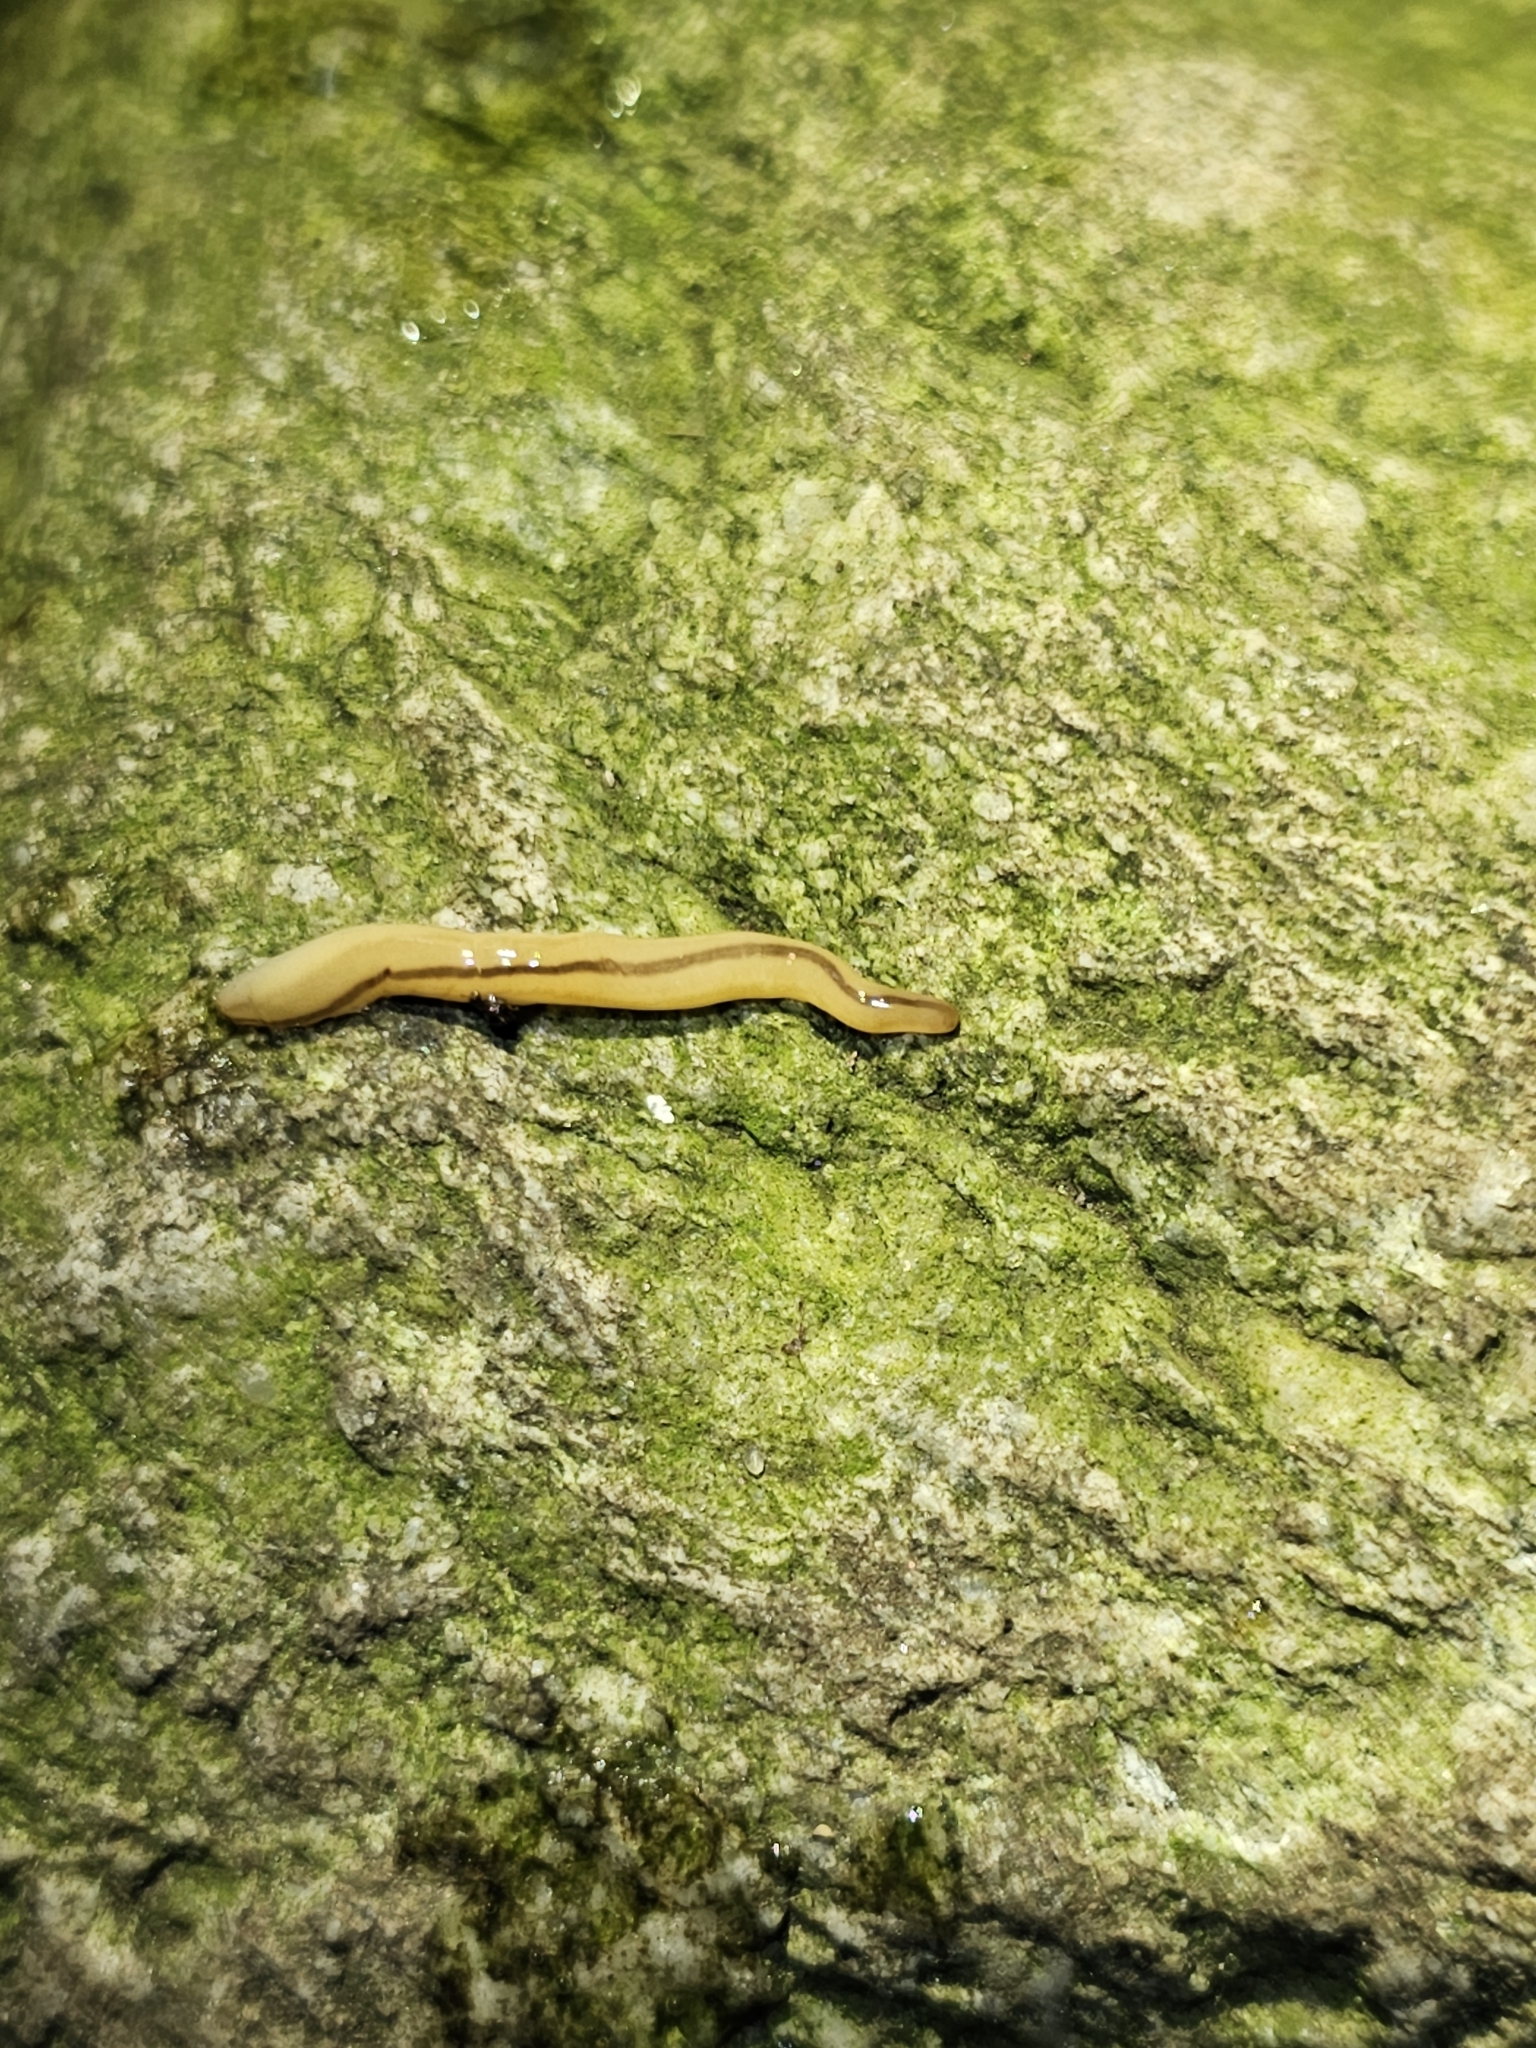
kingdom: Animalia
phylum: Nemertea
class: Hoplonemertea
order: Monostilifera
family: Prosorhochmidae
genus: Geonemertes
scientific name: Geonemertes pelaensis
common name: Land nemertean
